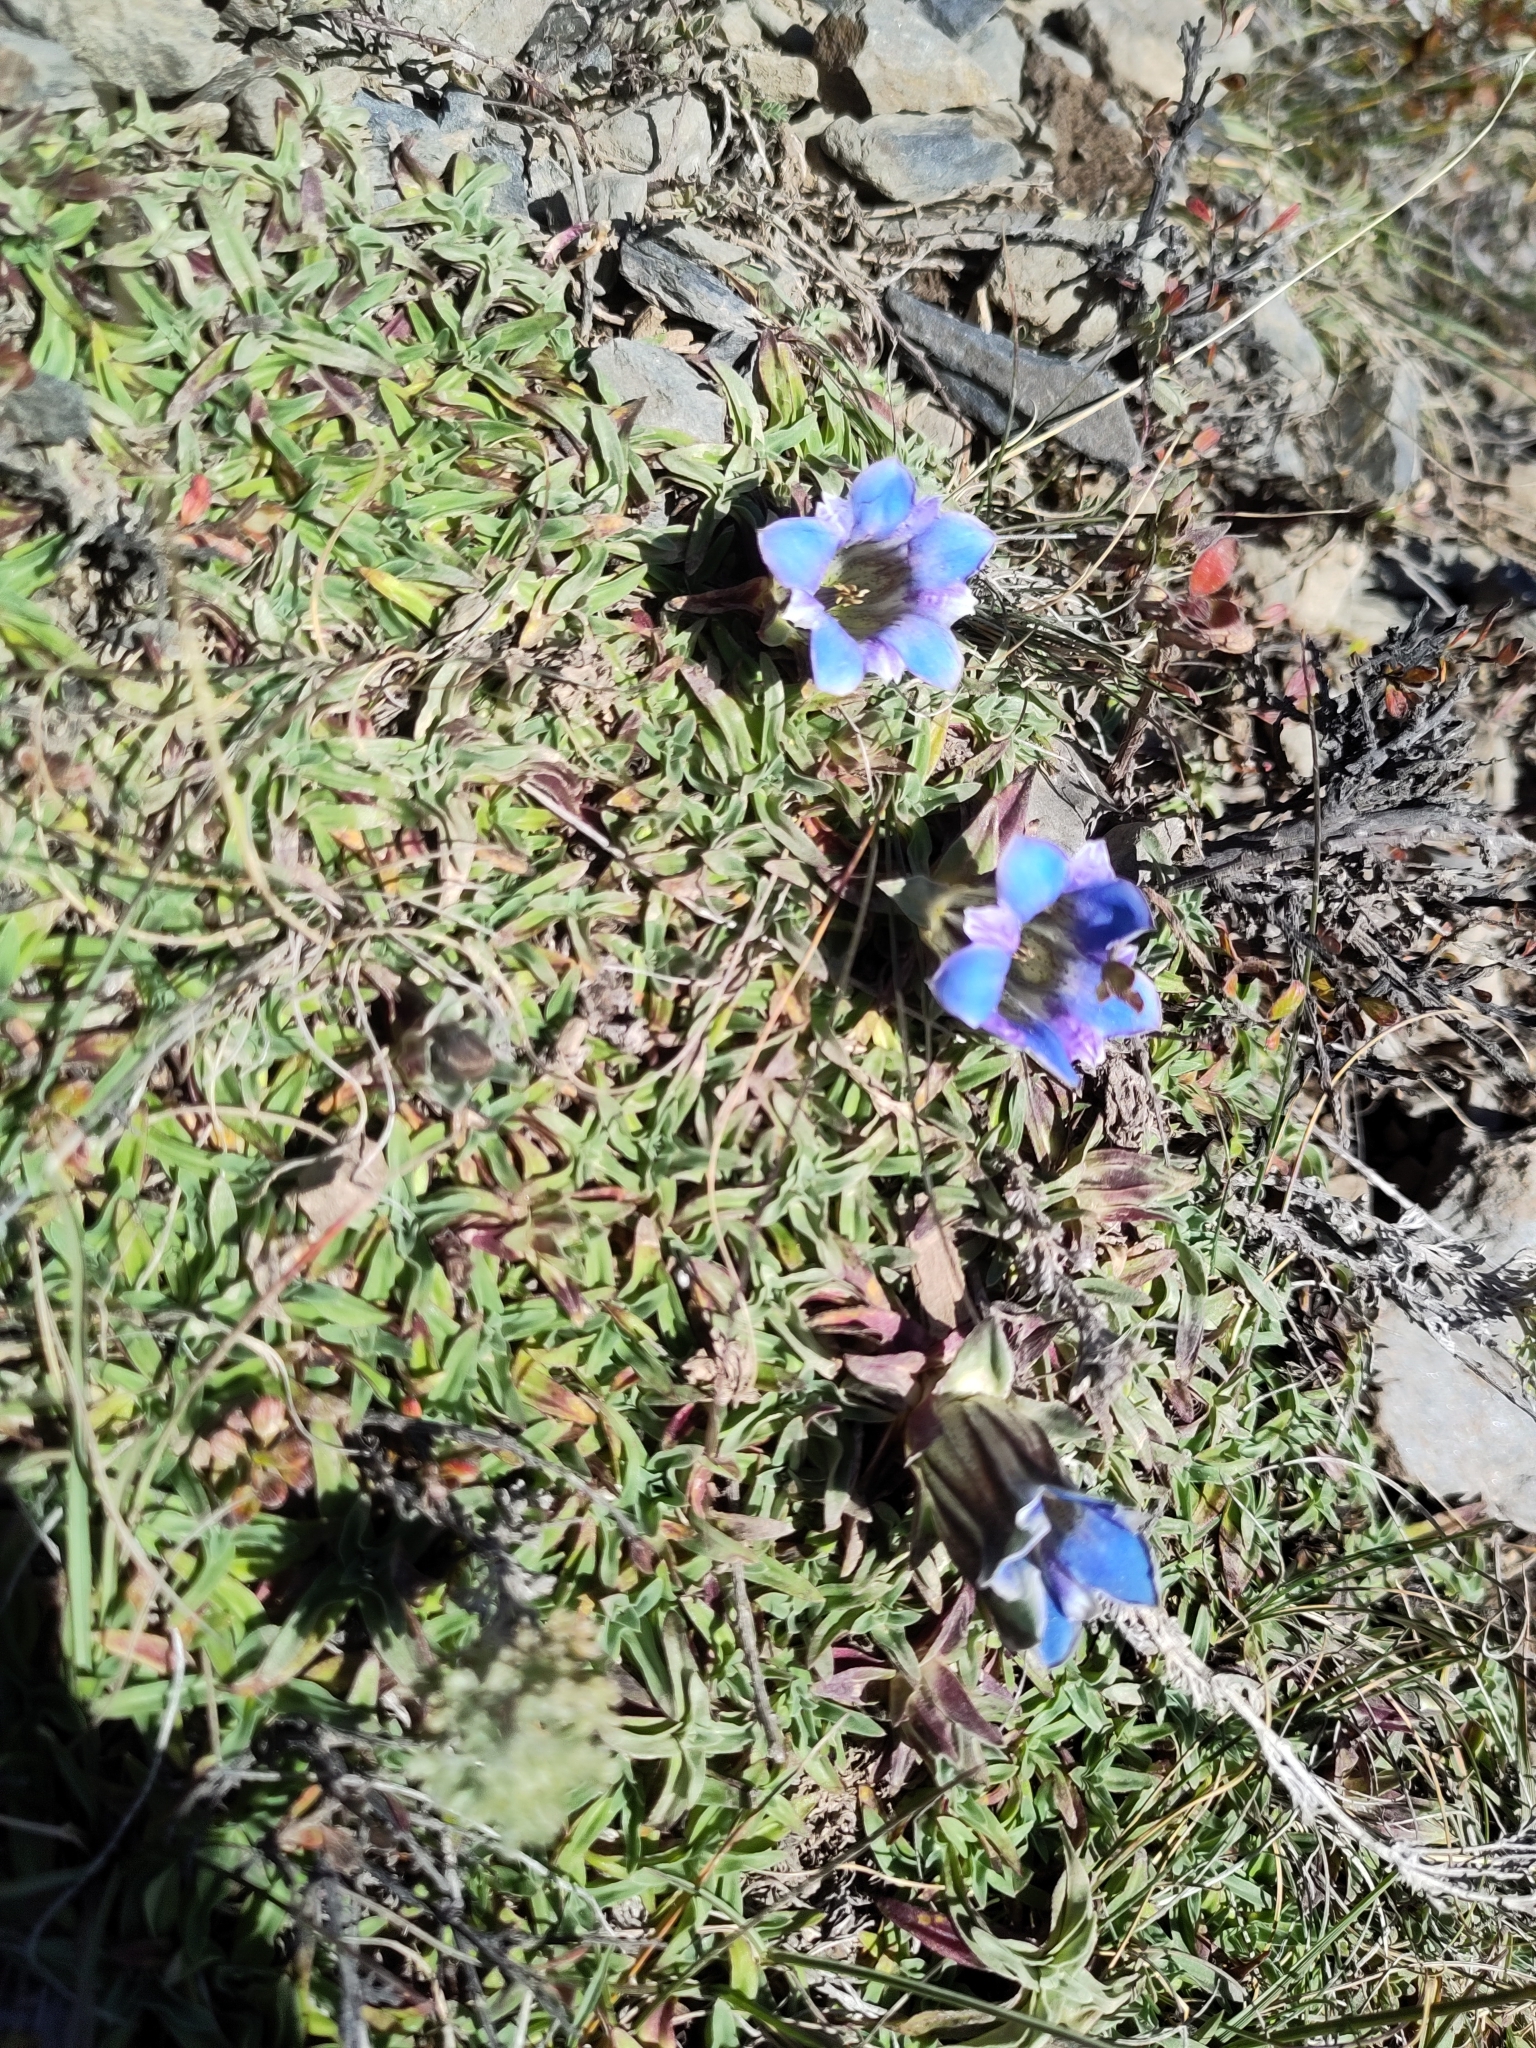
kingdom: Plantae
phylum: Tracheophyta
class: Magnoliopsida
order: Gentianales
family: Gentianaceae
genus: Gentiana
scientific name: Gentiana depressa
